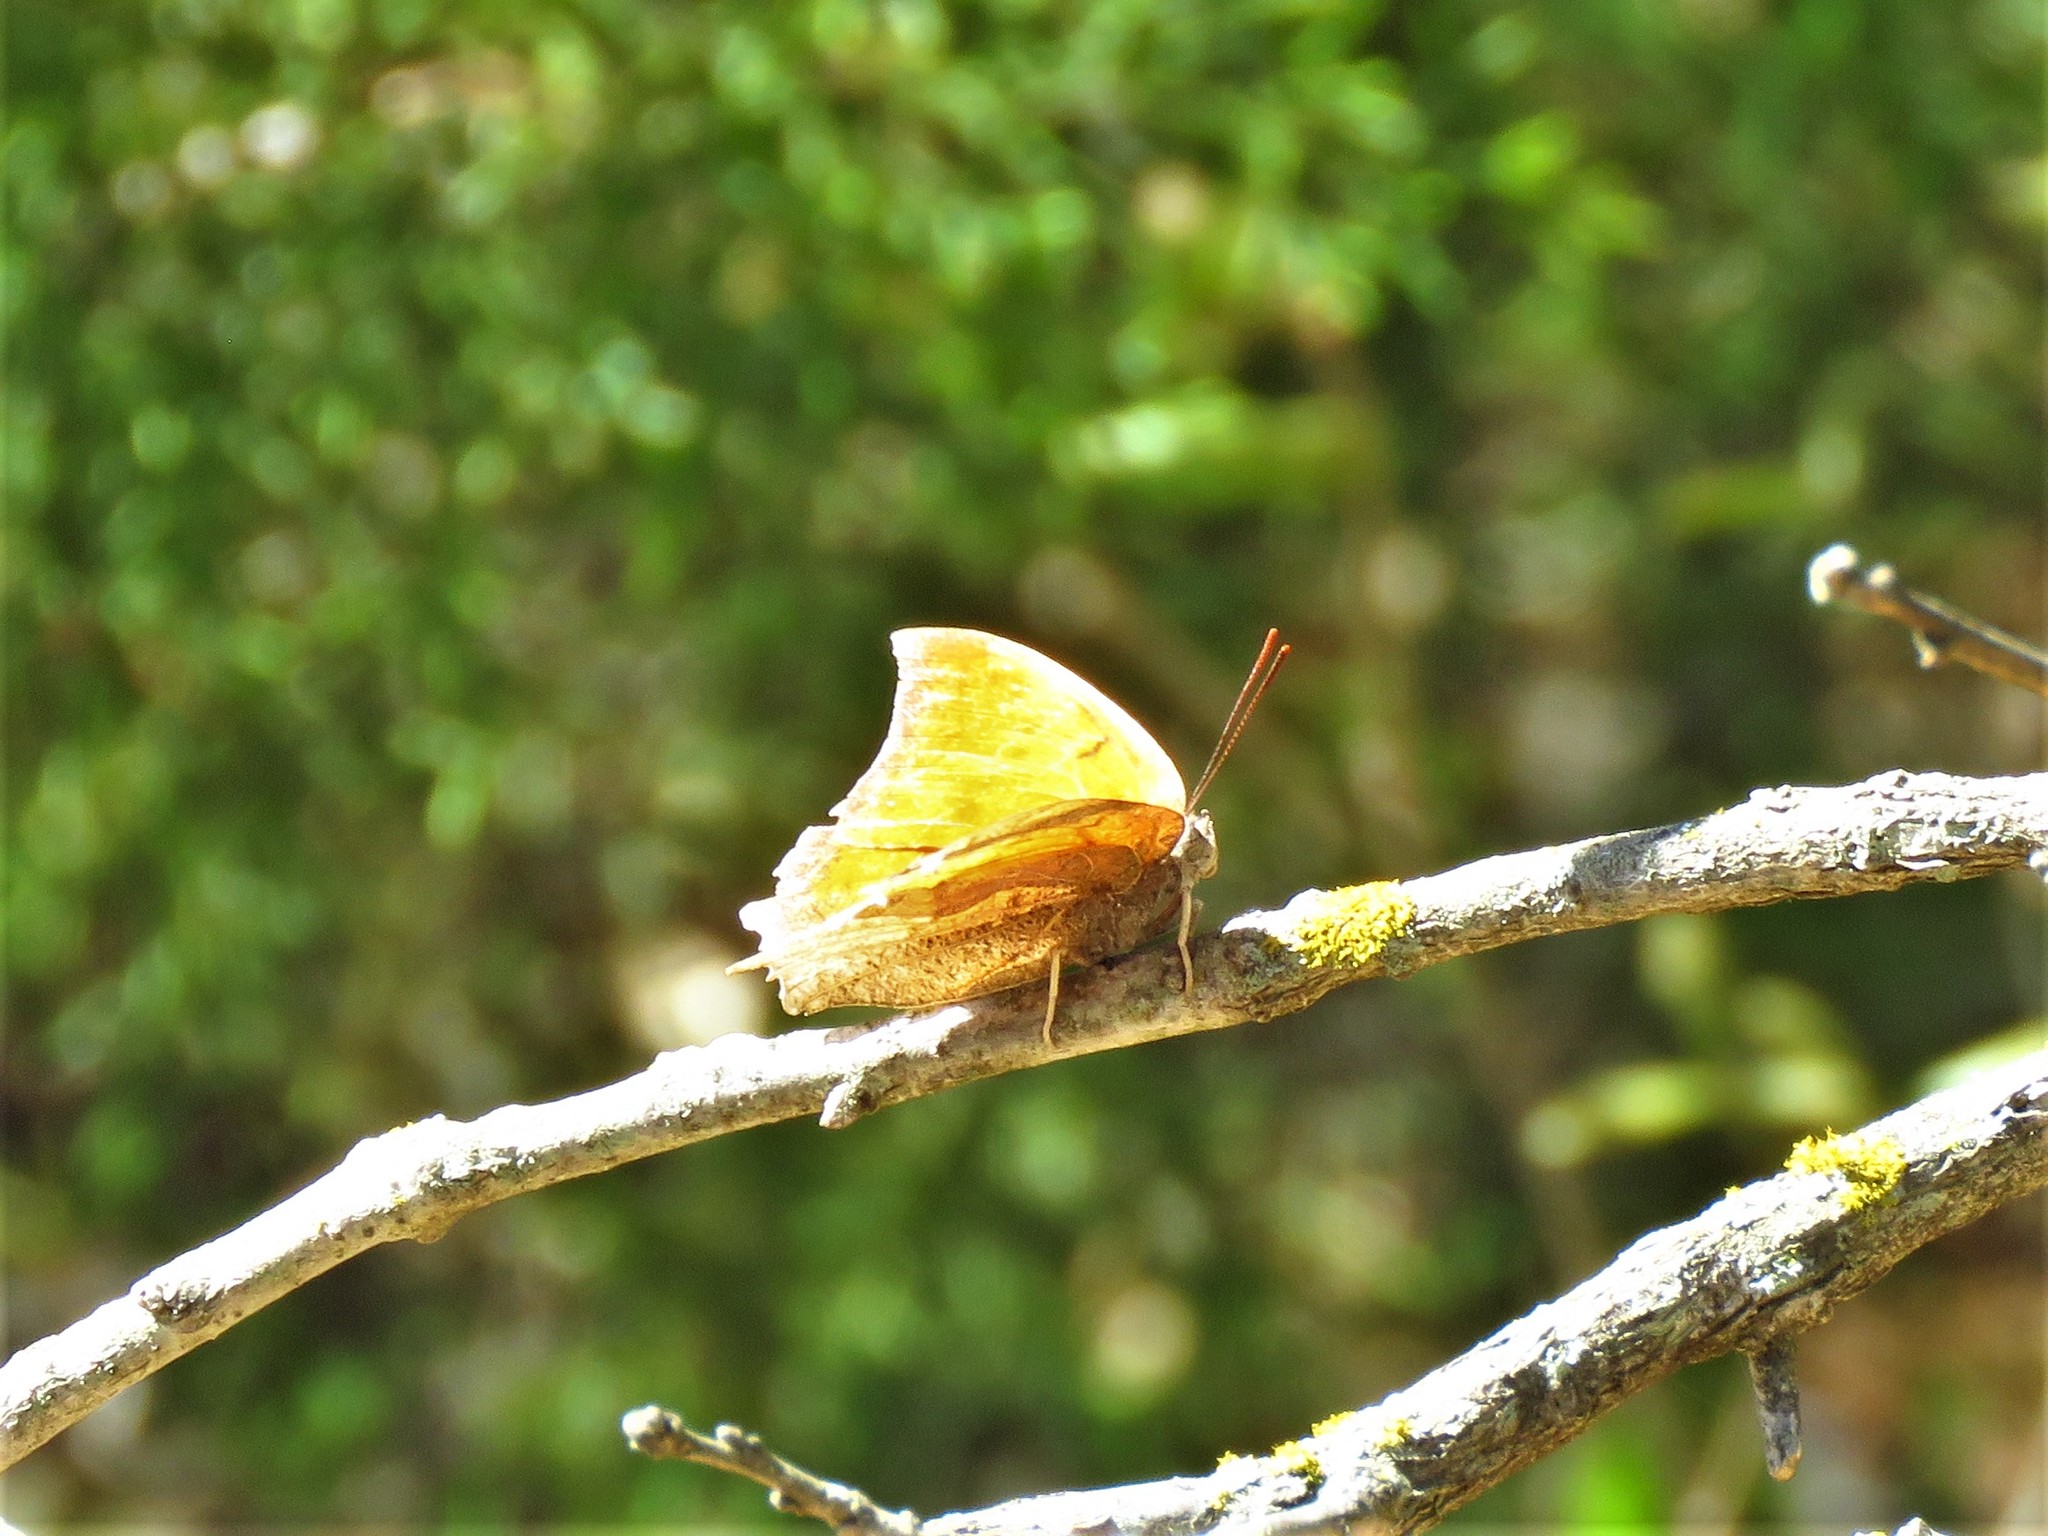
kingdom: Animalia
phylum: Arthropoda
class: Insecta
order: Lepidoptera
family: Nymphalidae
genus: Anaea
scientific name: Anaea andria
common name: Goatweed leafwing
